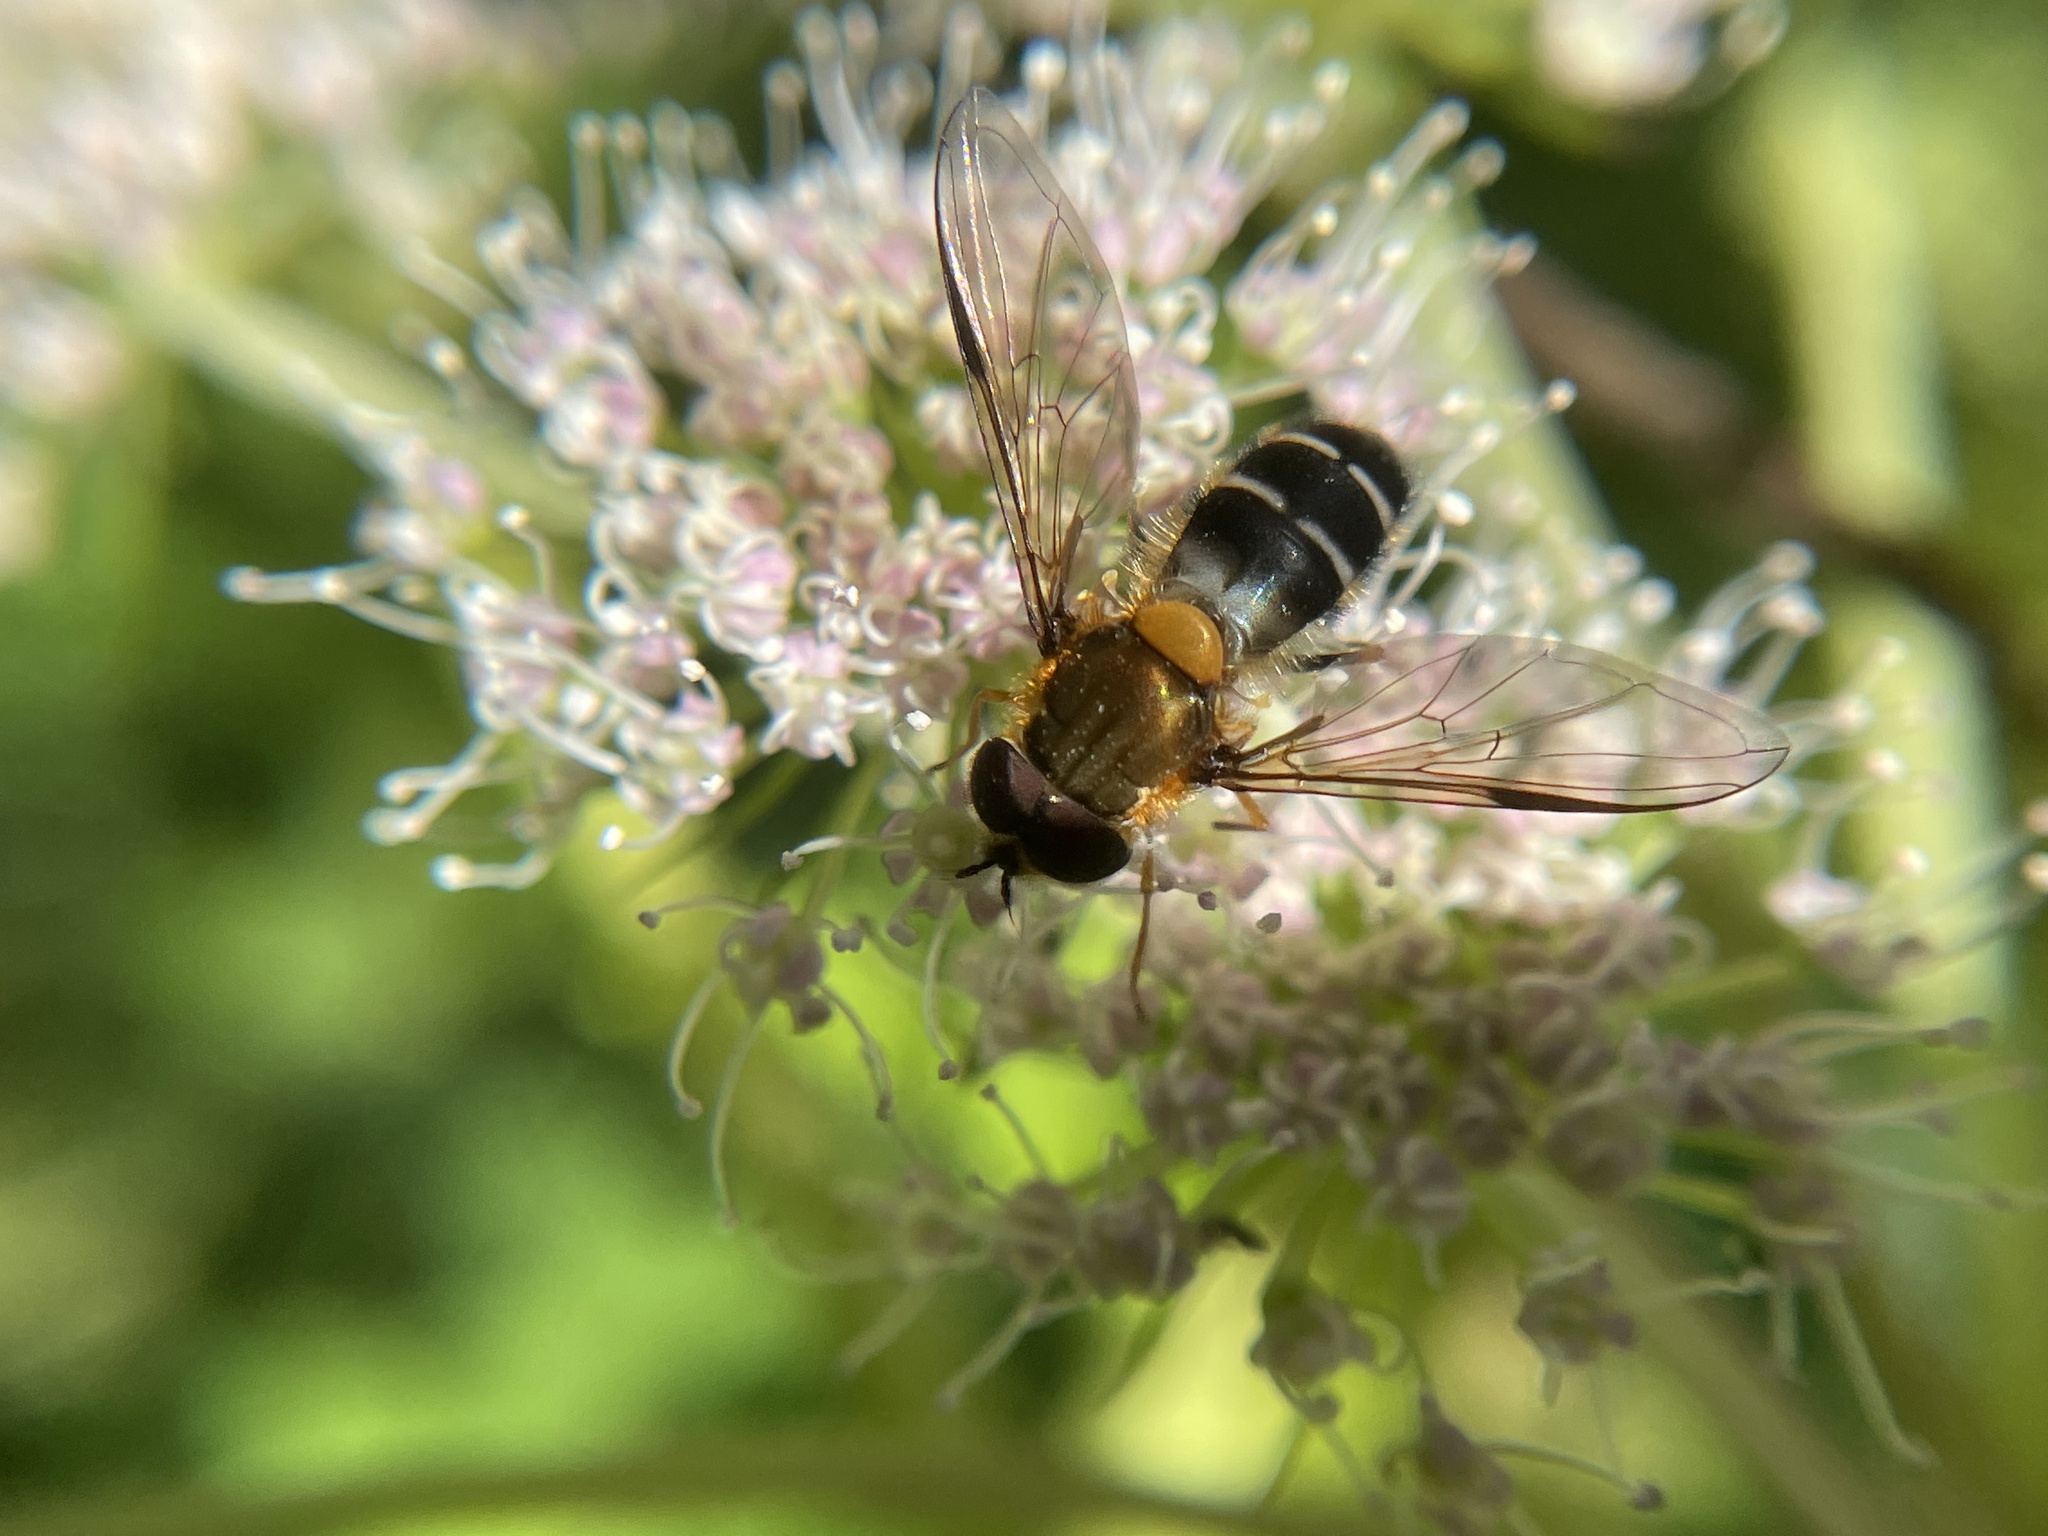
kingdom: Animalia
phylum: Arthropoda
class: Insecta
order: Diptera
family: Syrphidae
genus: Leucozona
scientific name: Leucozona glaucia
